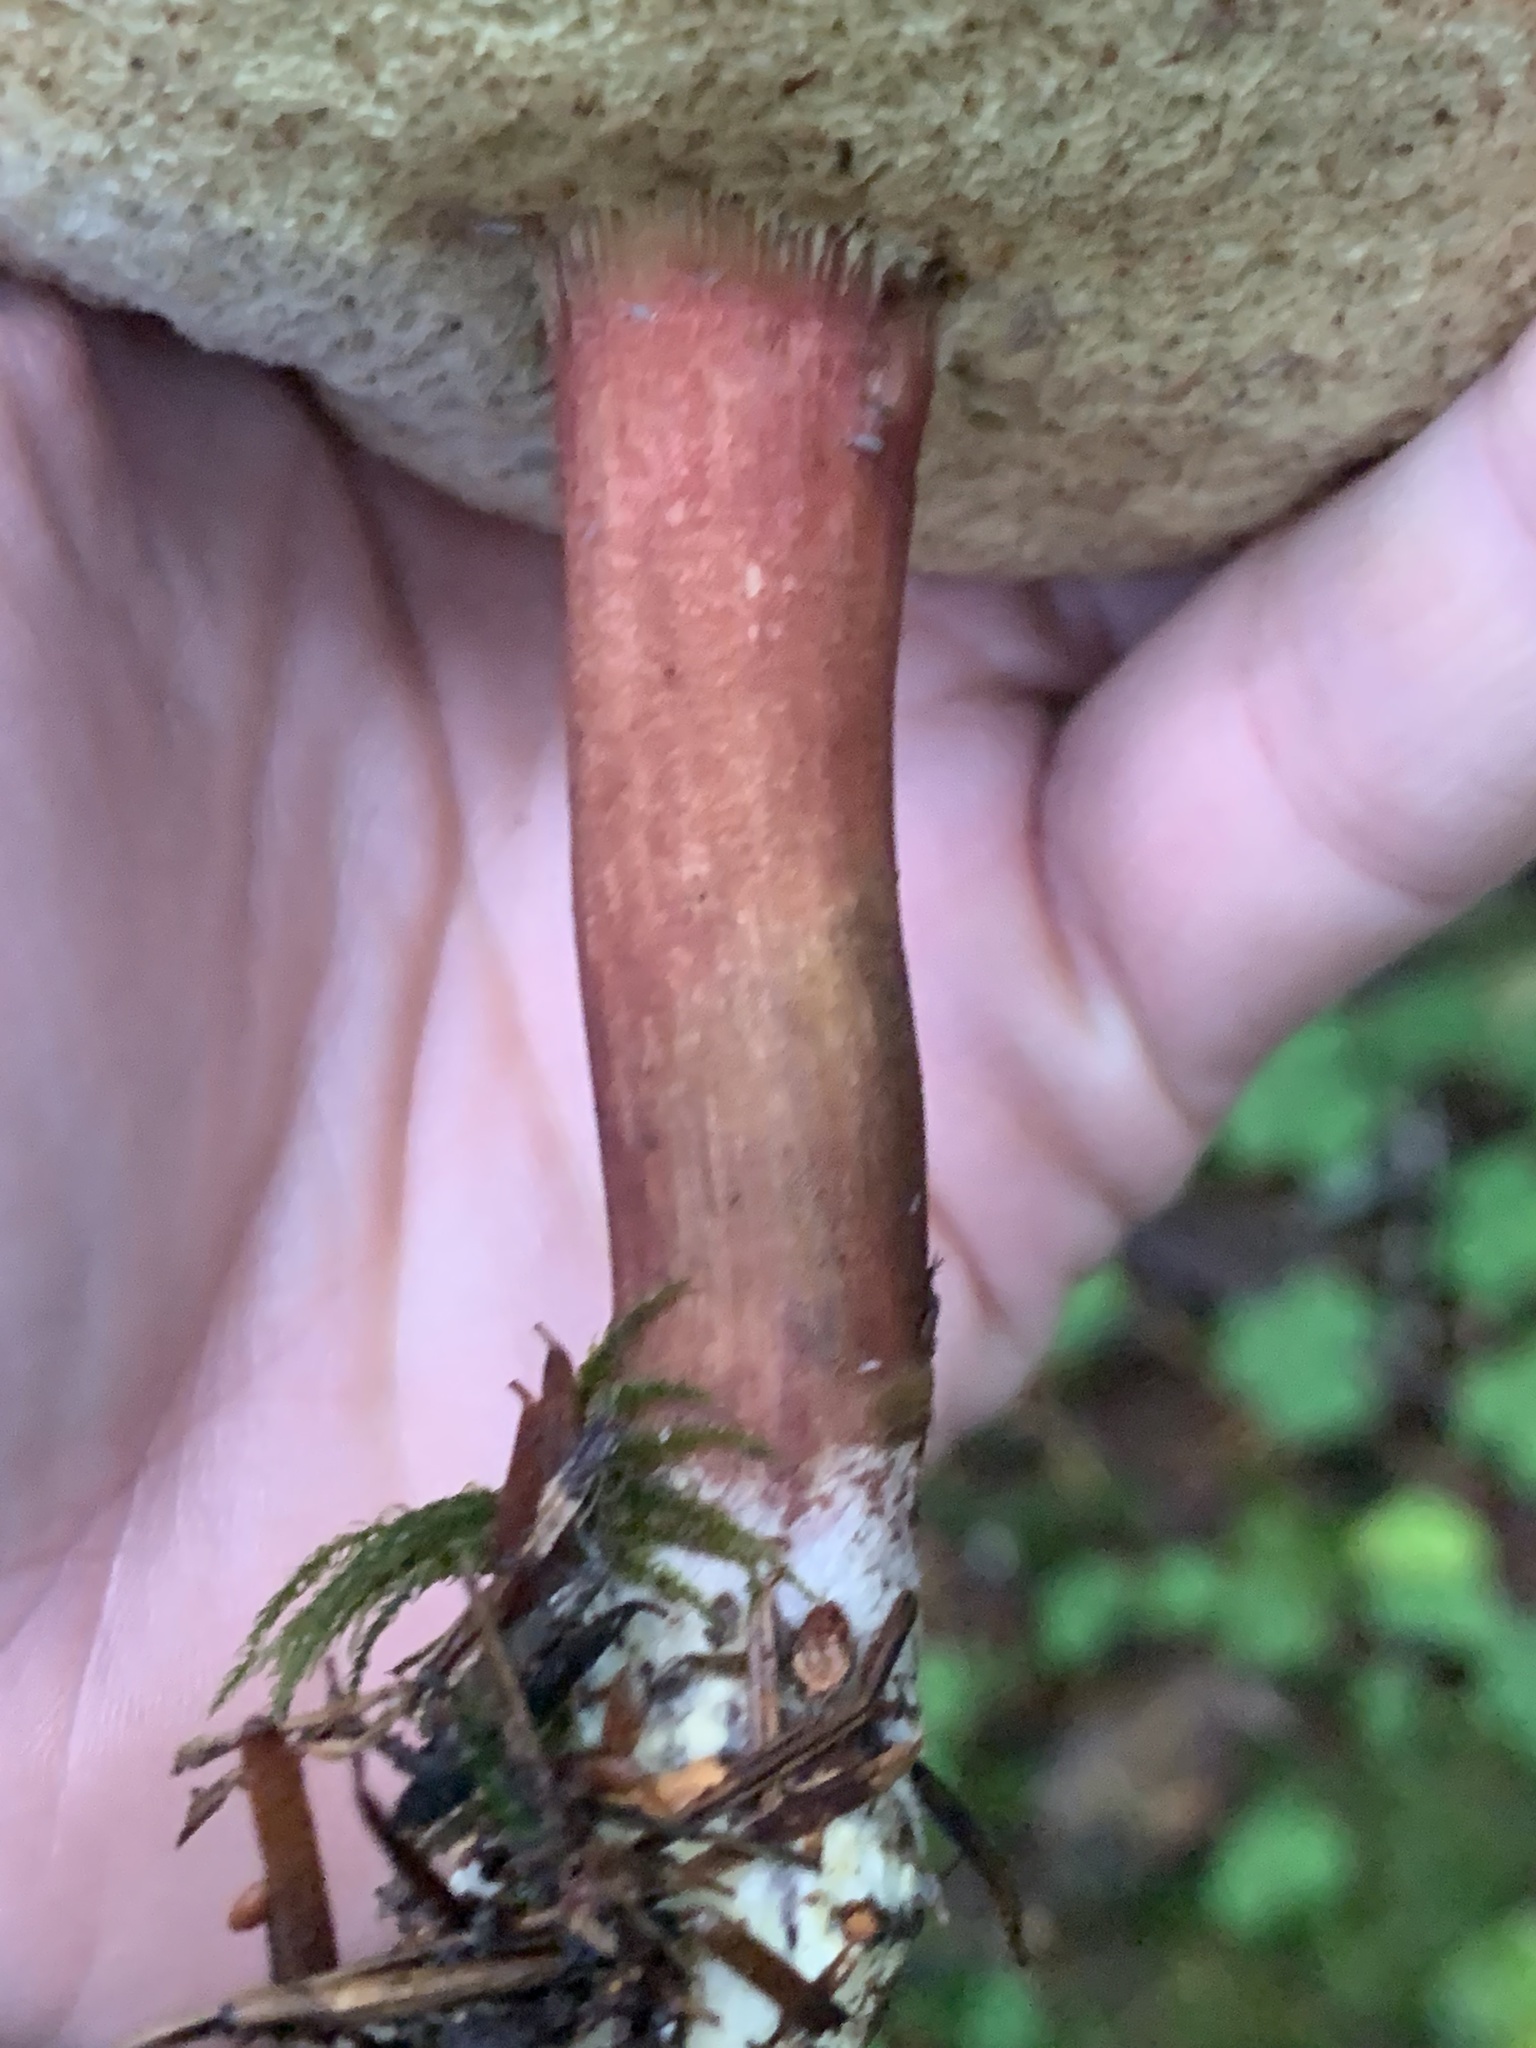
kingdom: Fungi
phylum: Basidiomycota
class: Agaricomycetes
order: Boletales
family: Boletaceae
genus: Xerocomellus
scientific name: Xerocomellus zelleri
